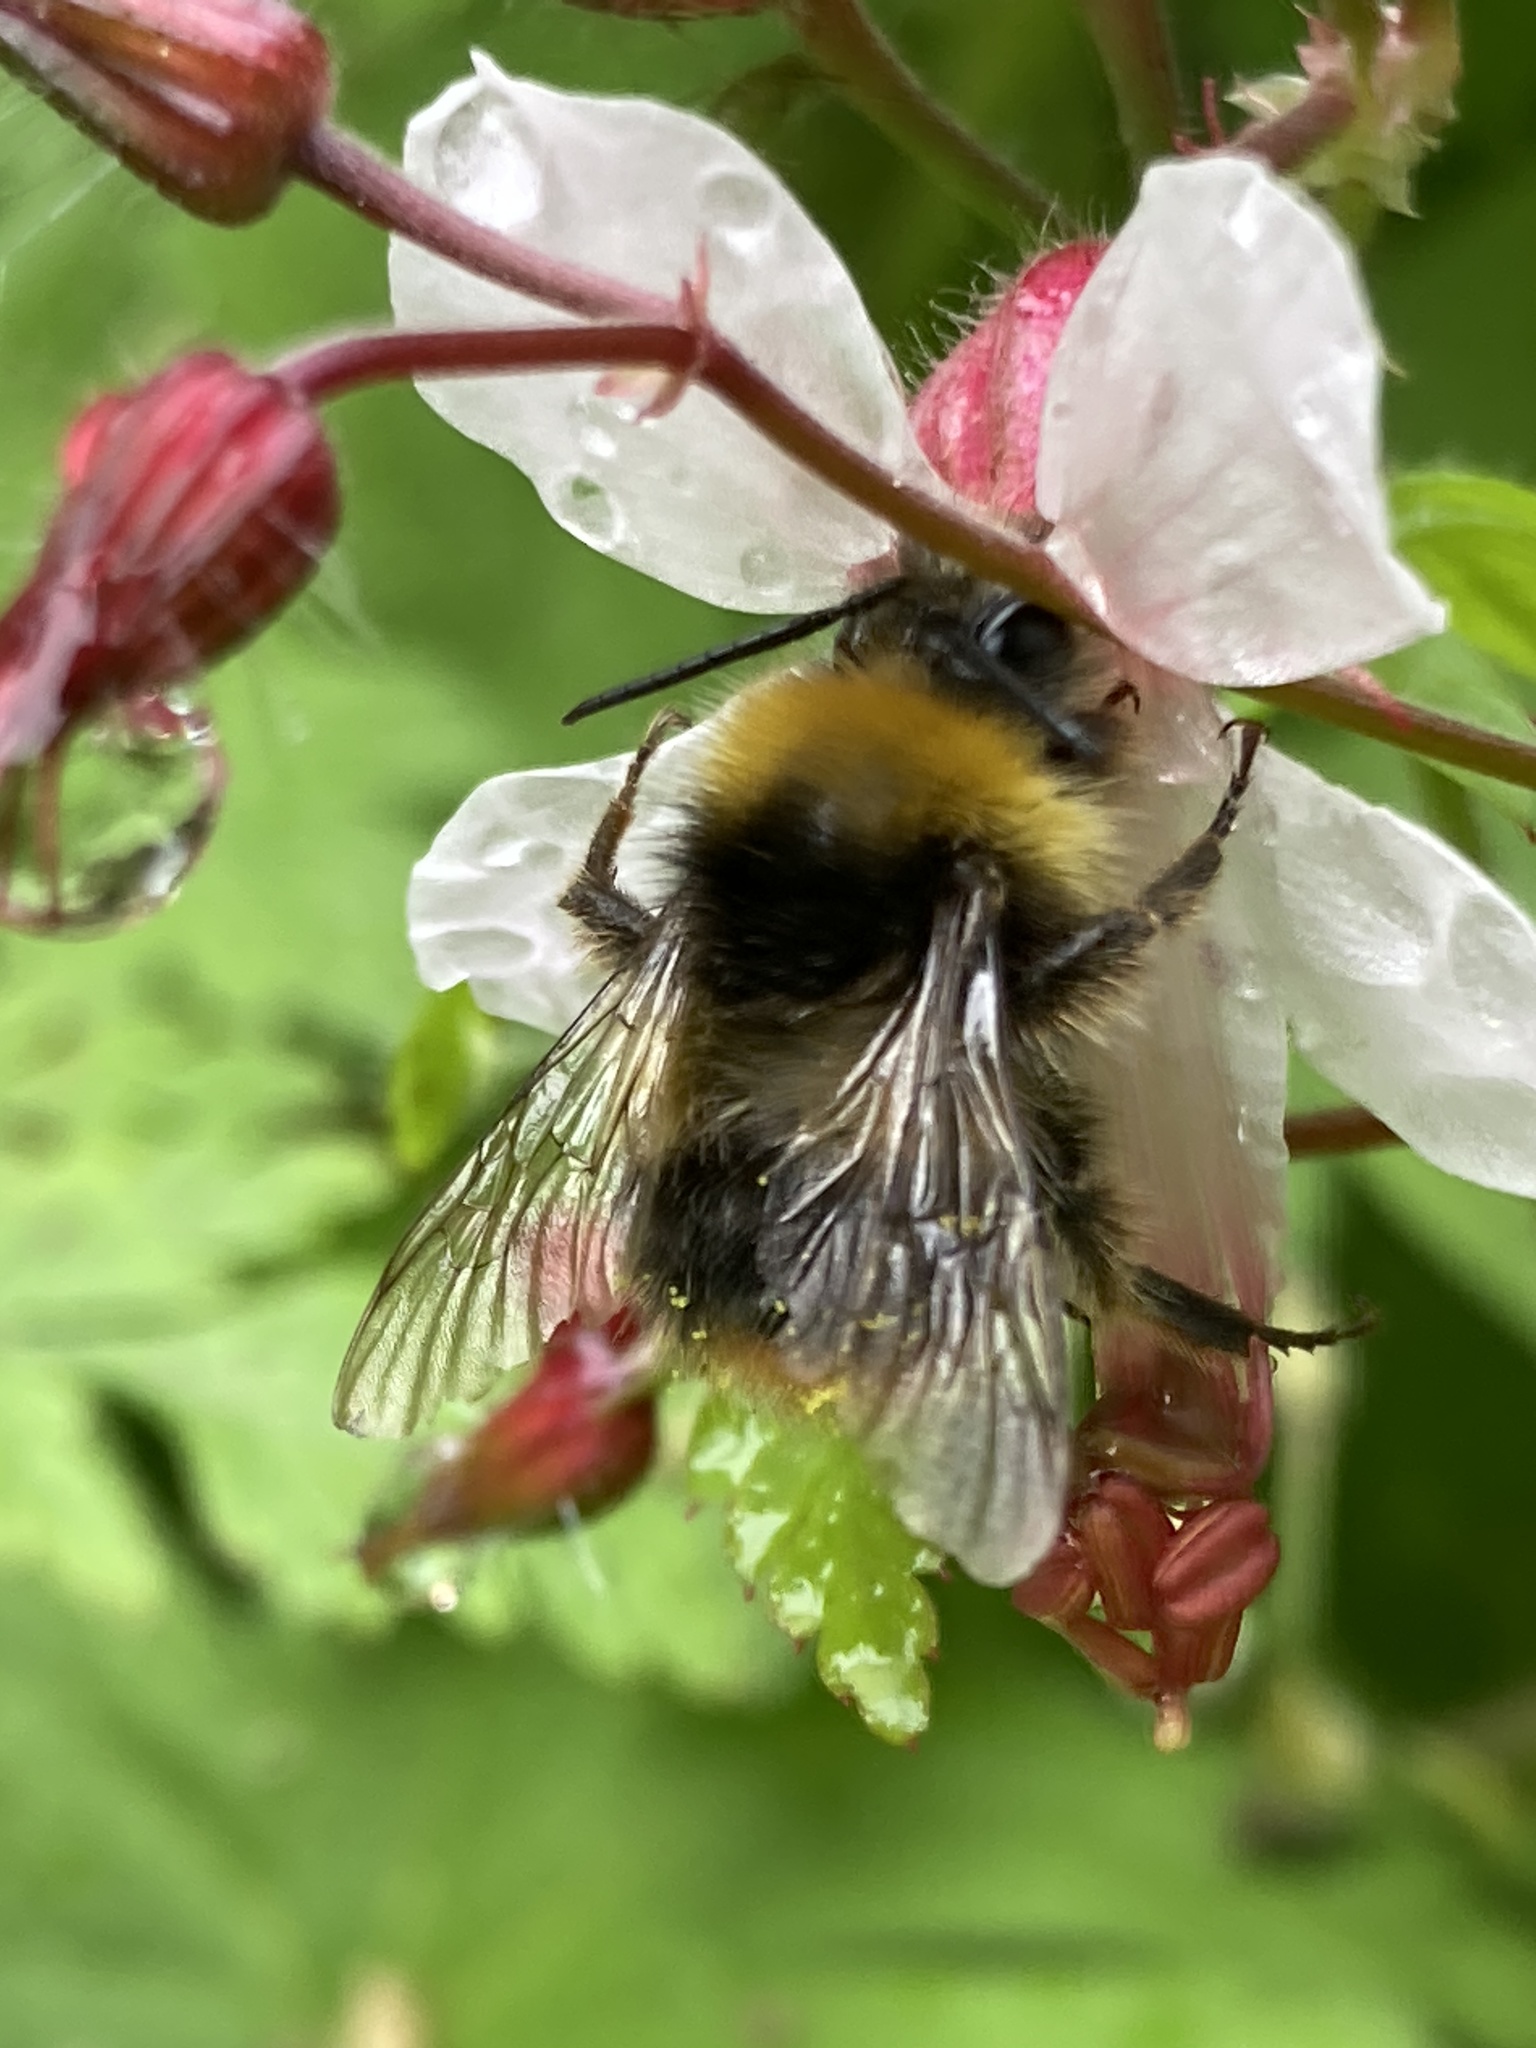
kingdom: Animalia
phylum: Arthropoda
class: Insecta
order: Hymenoptera
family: Apidae
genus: Bombus
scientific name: Bombus pratorum
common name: Early humble-bee
